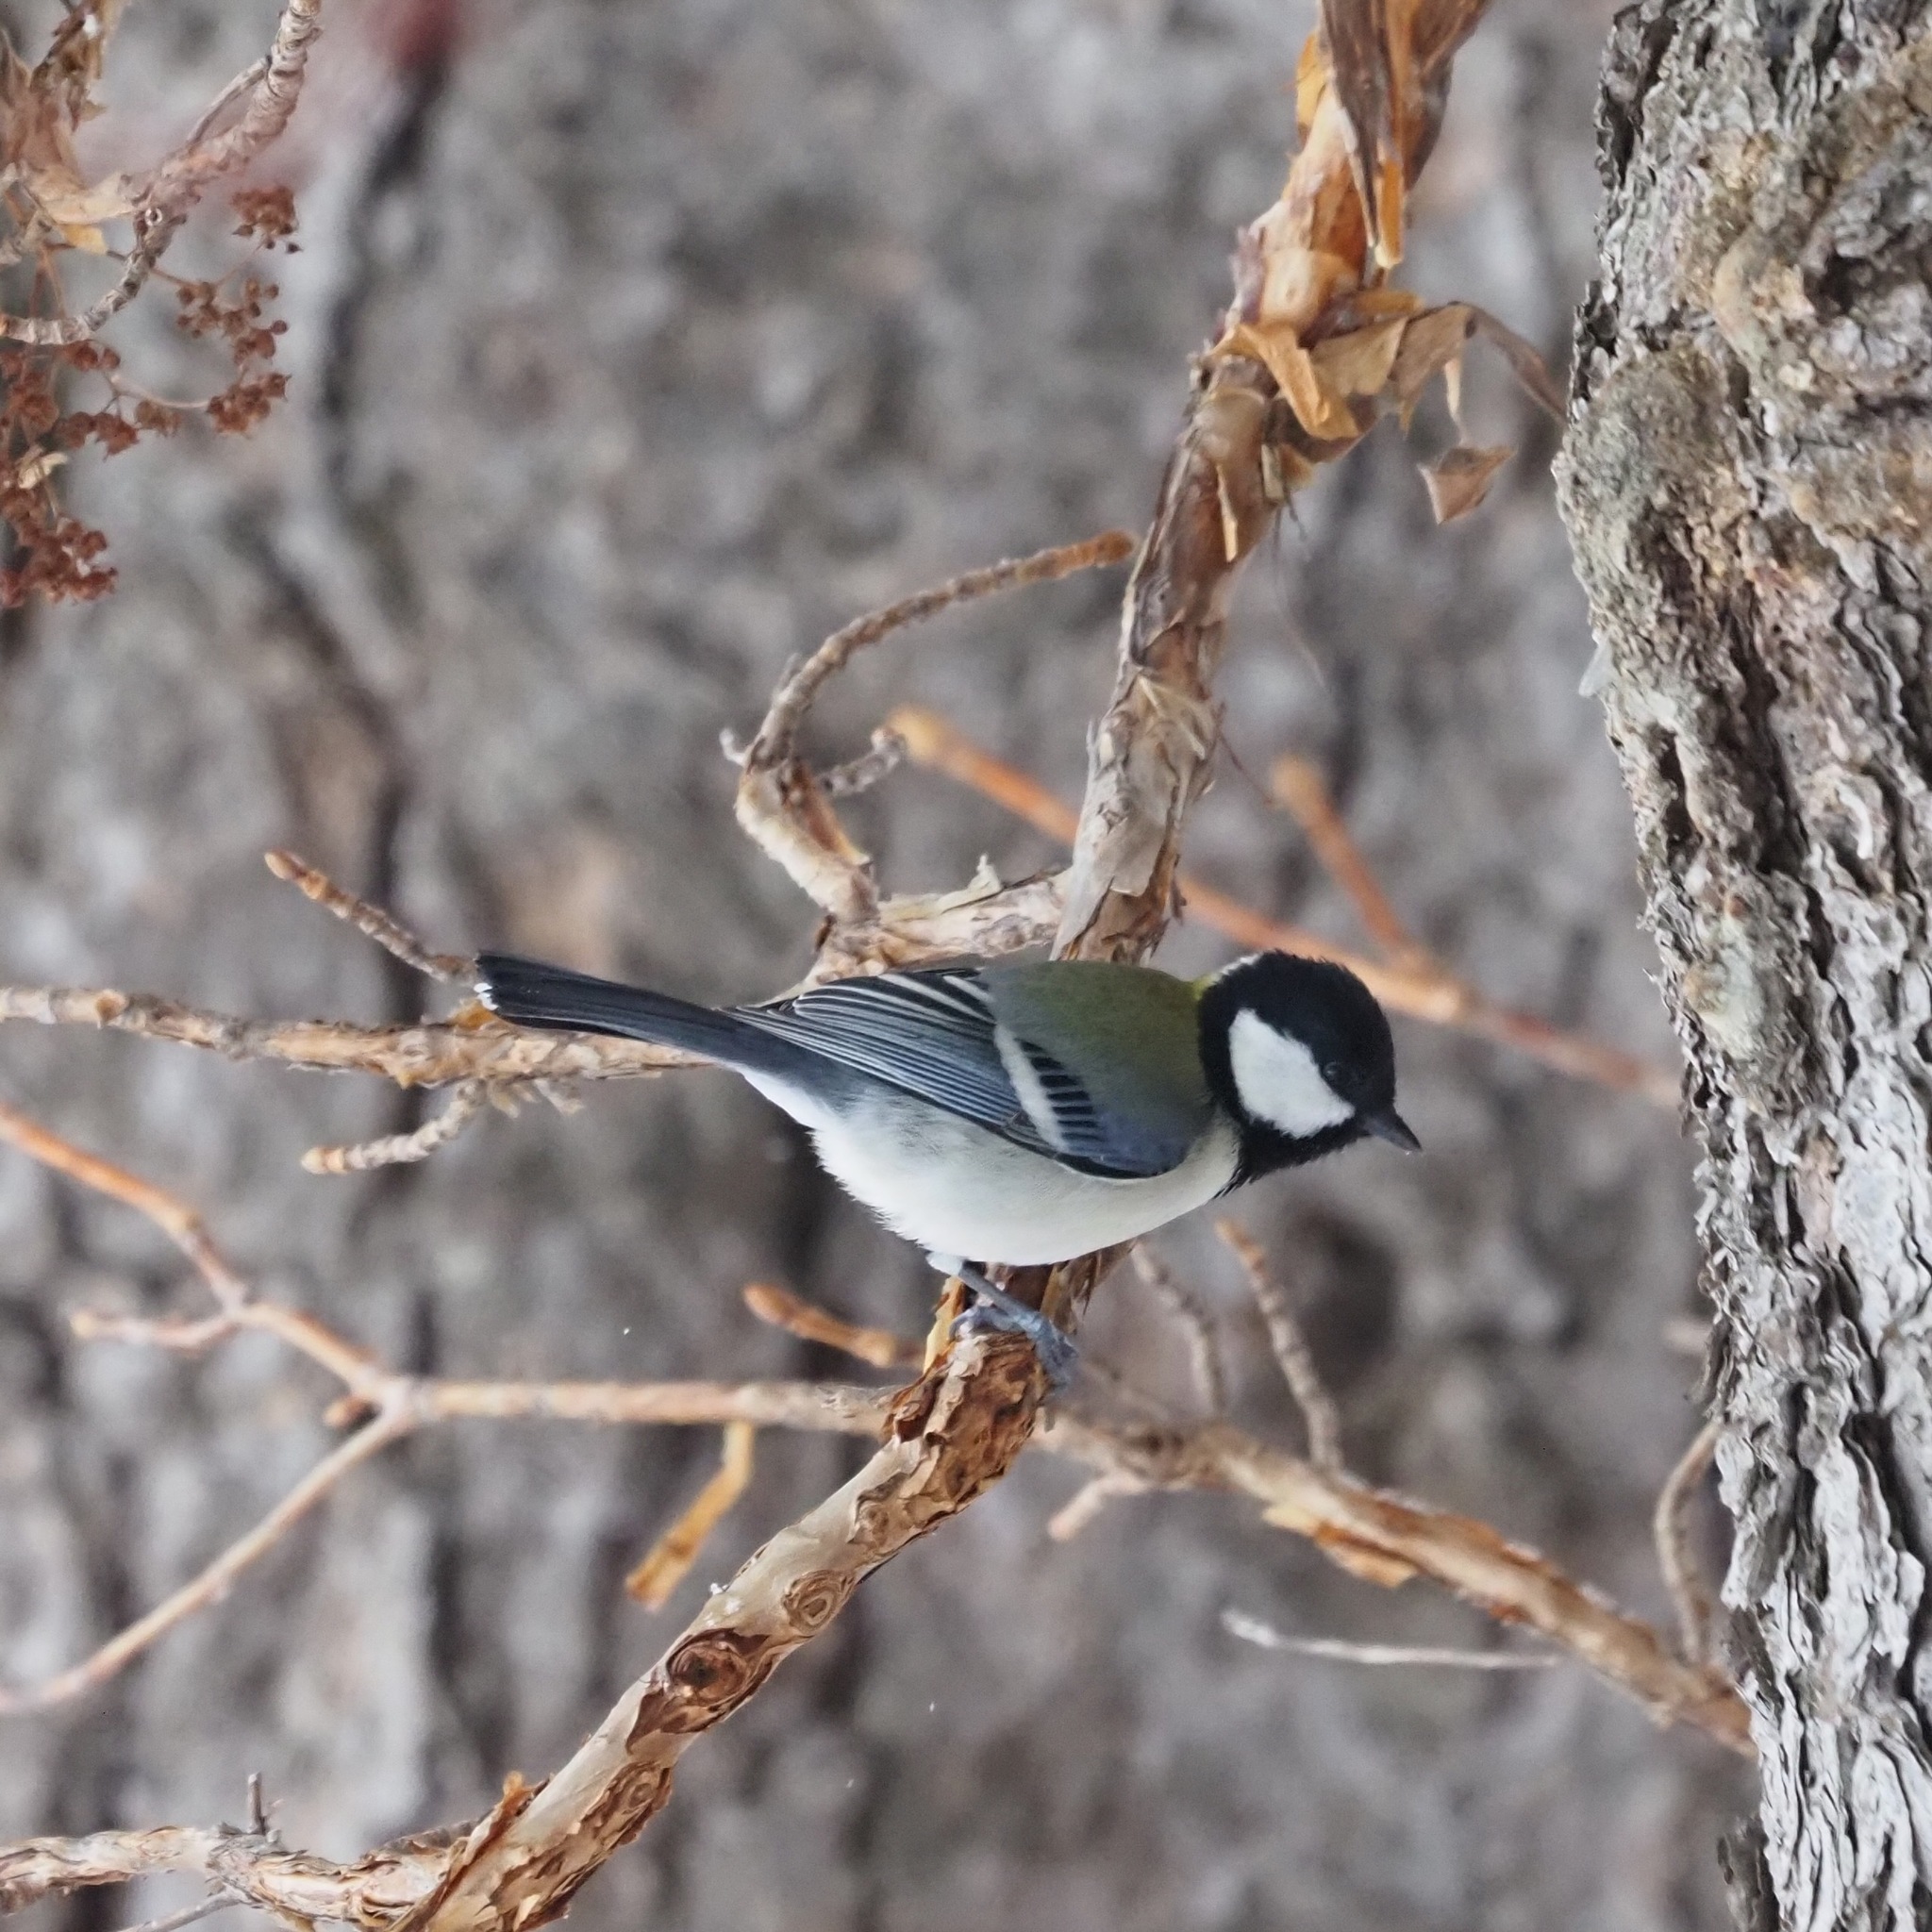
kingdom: Animalia
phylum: Chordata
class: Aves
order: Passeriformes
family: Paridae
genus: Parus
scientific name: Parus minor
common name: Japanese tit
